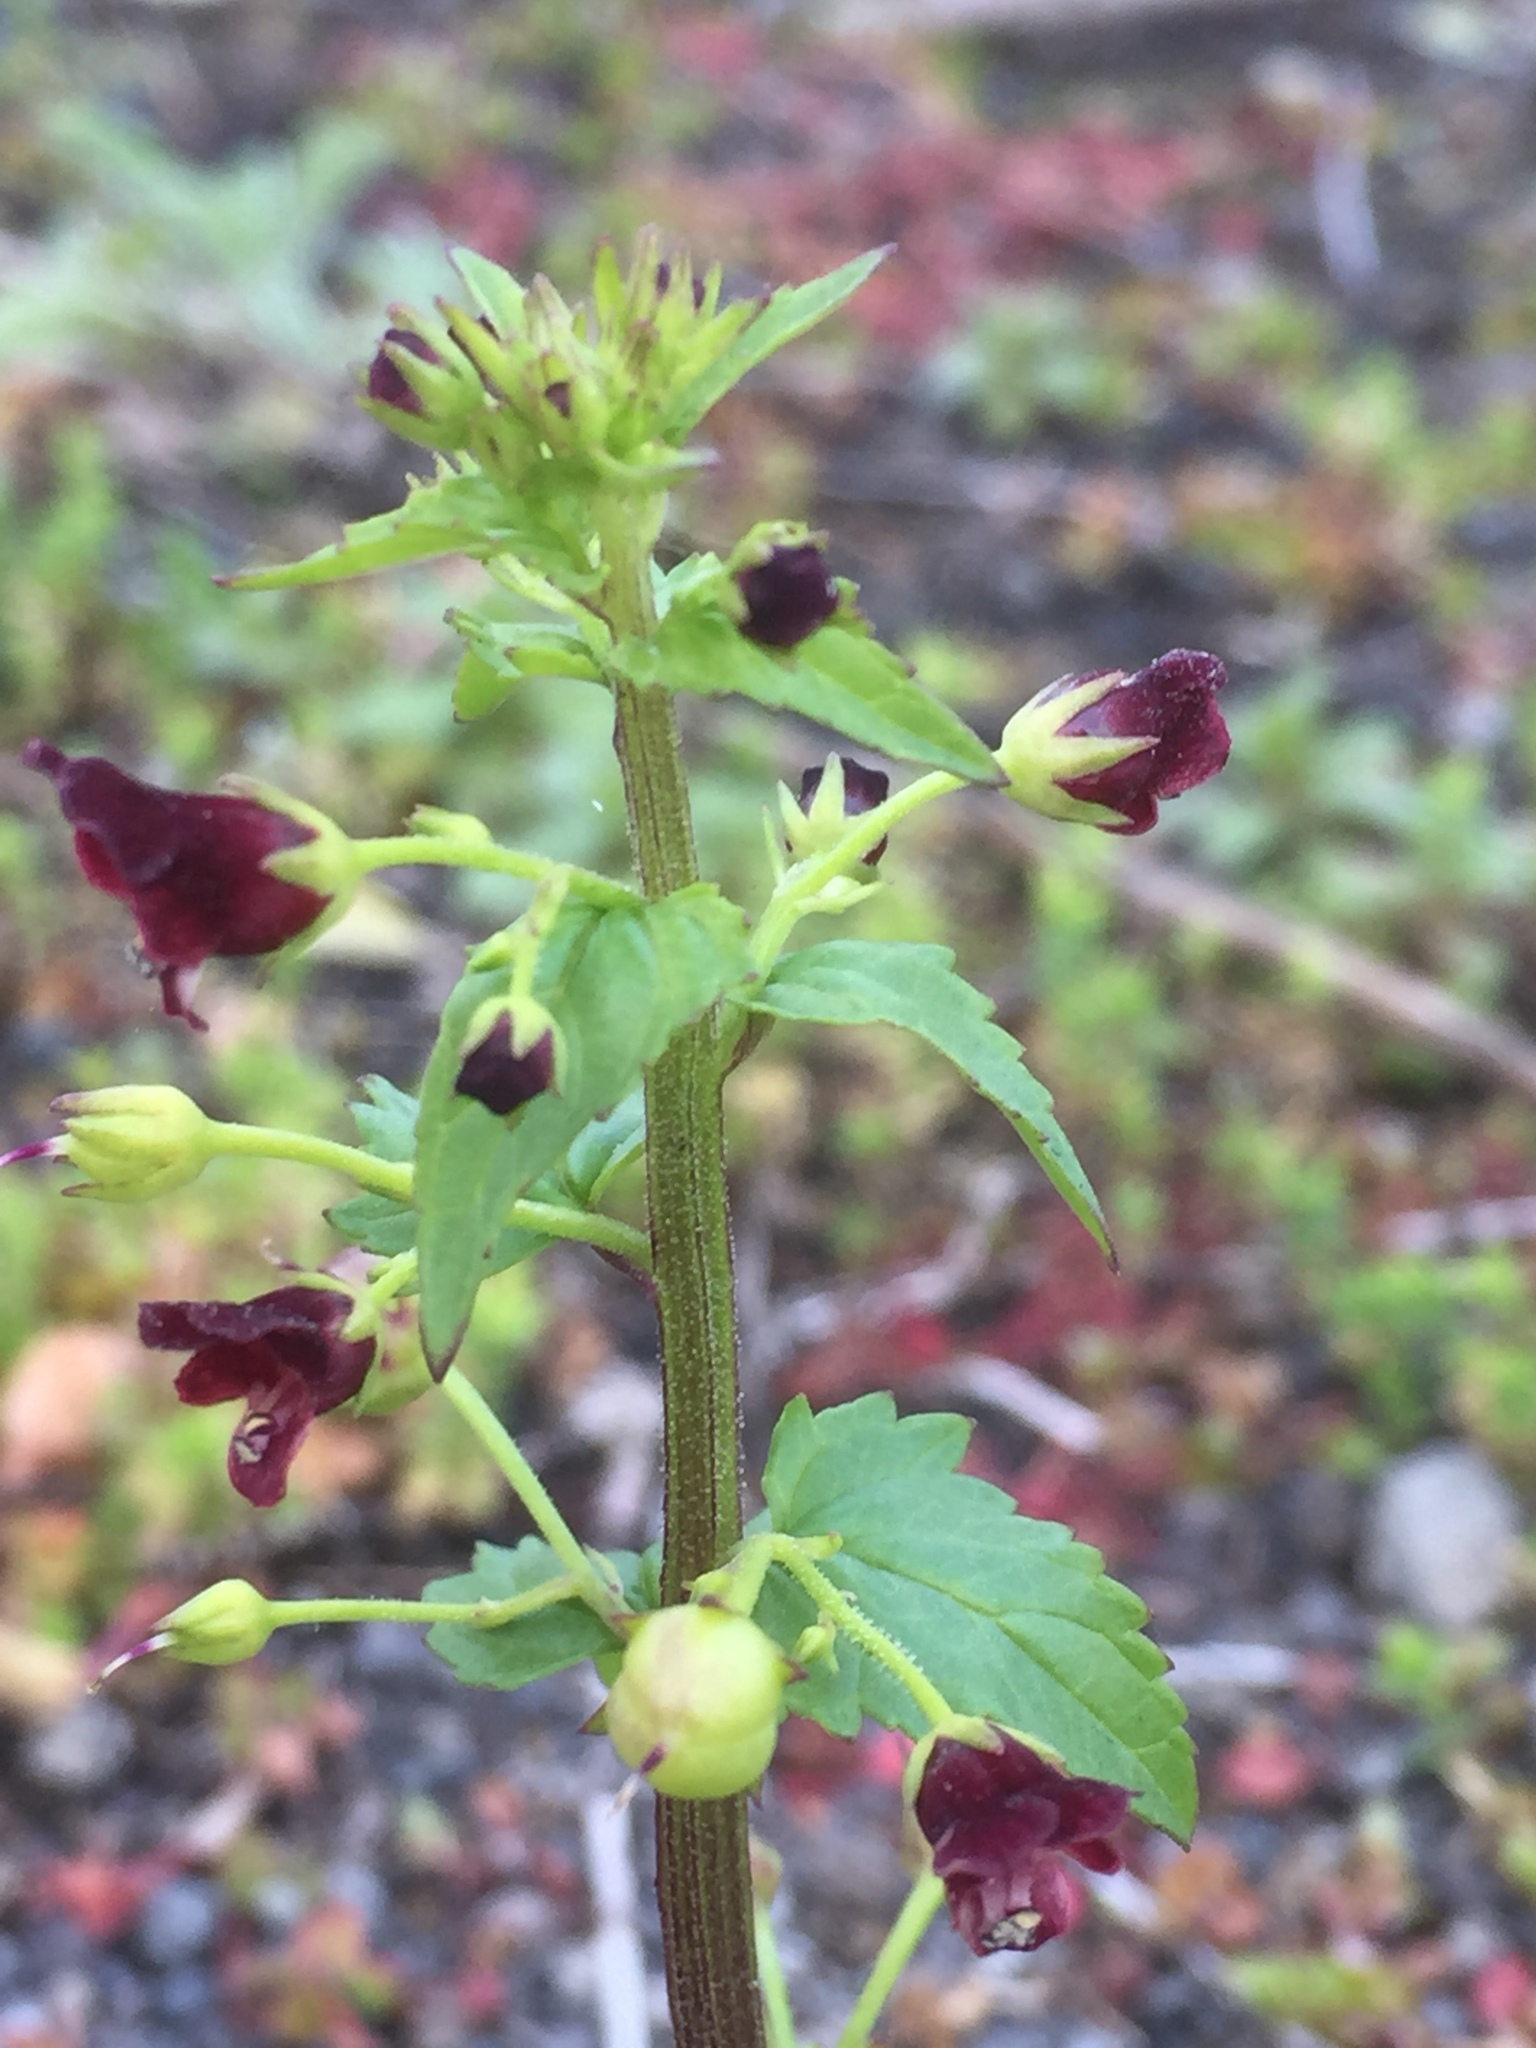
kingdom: Plantae
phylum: Tracheophyta
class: Magnoliopsida
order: Lamiales
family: Scrophulariaceae
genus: Scrophularia
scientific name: Scrophularia peregrina
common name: Mediterranean figwort
